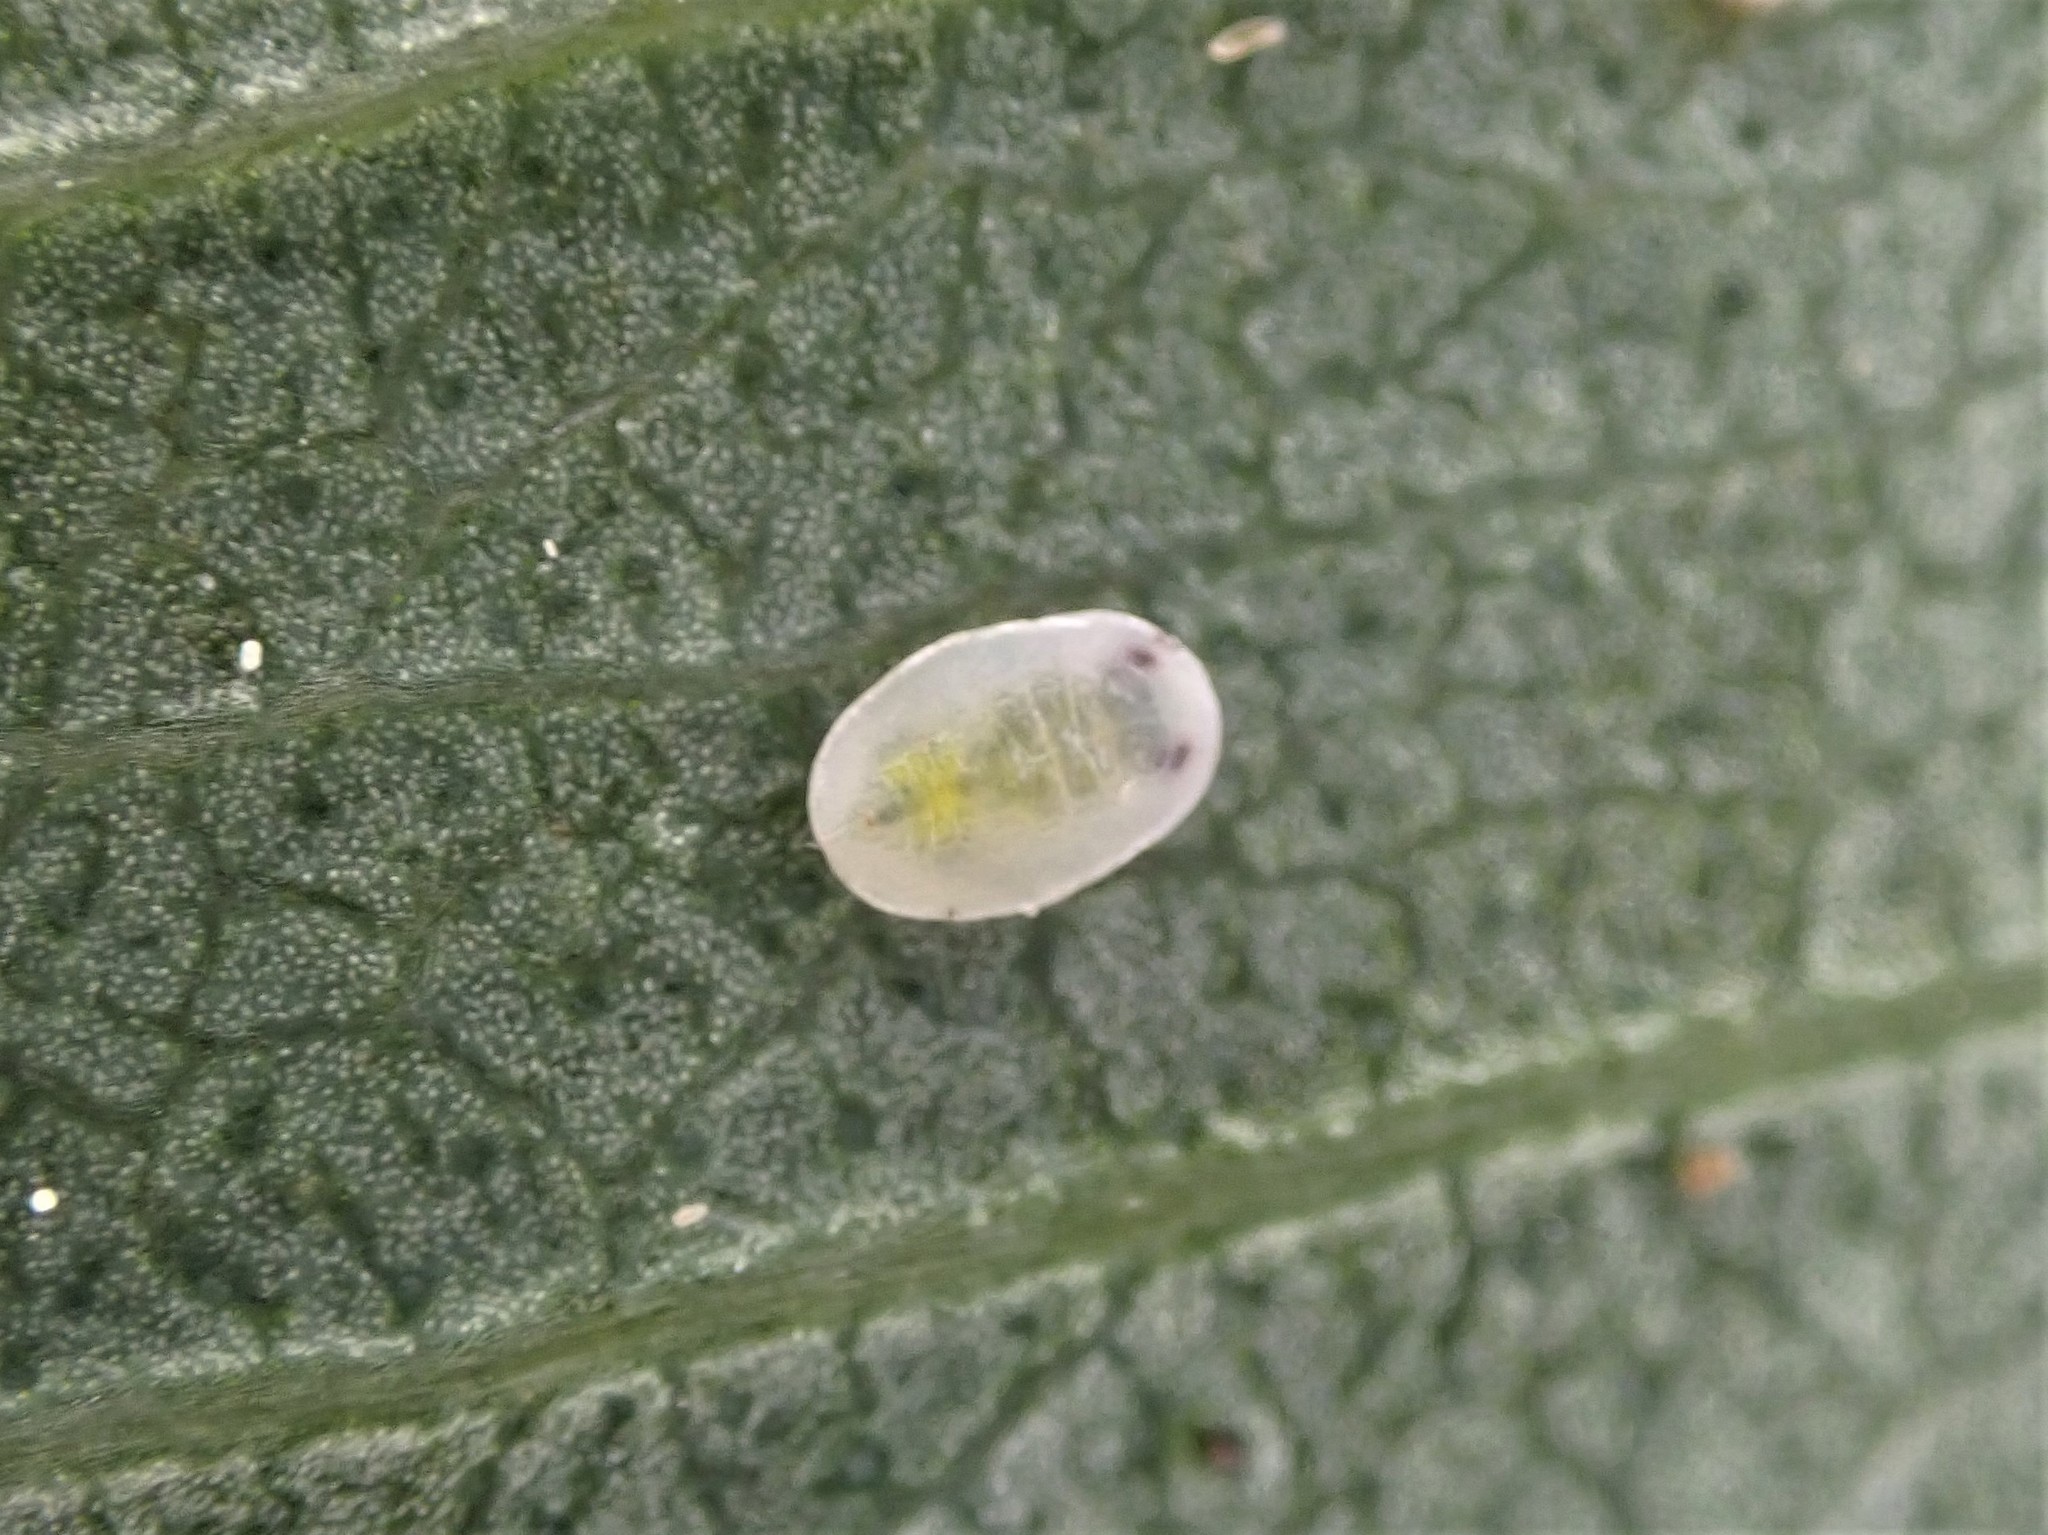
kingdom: Animalia
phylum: Arthropoda
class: Insecta
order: Hemiptera
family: Aleyrodidae
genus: Dumbletoniella
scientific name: Dumbletoniella eucalypti
